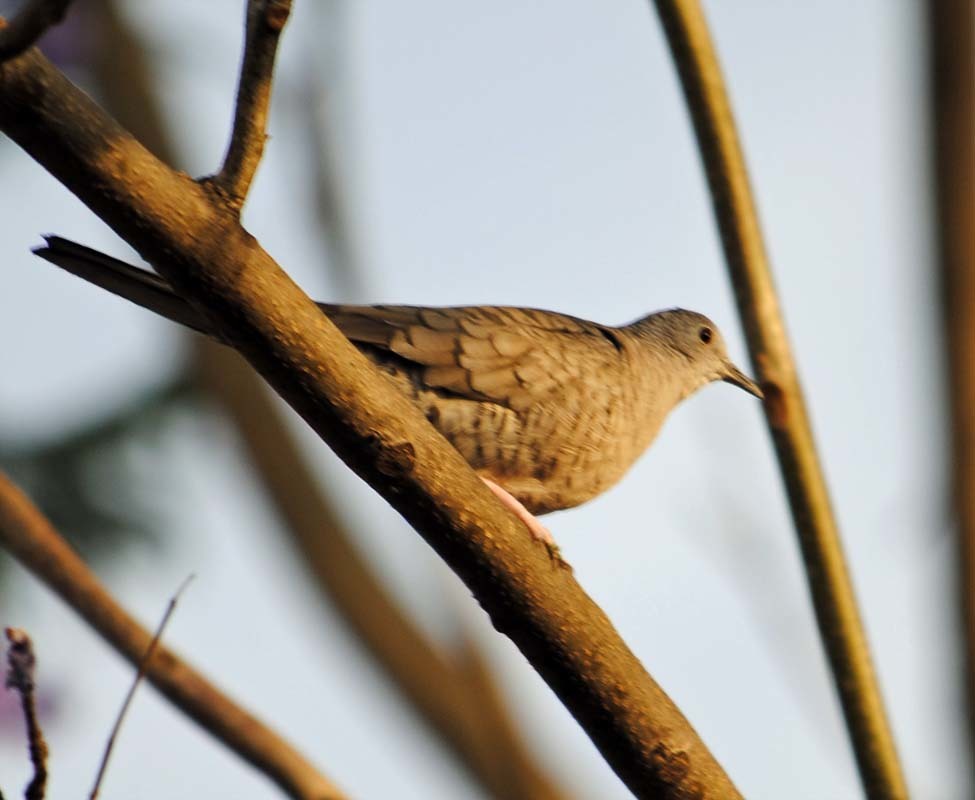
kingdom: Animalia
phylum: Chordata
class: Aves
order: Columbiformes
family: Columbidae
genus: Columbina
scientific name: Columbina inca
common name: Inca dove
